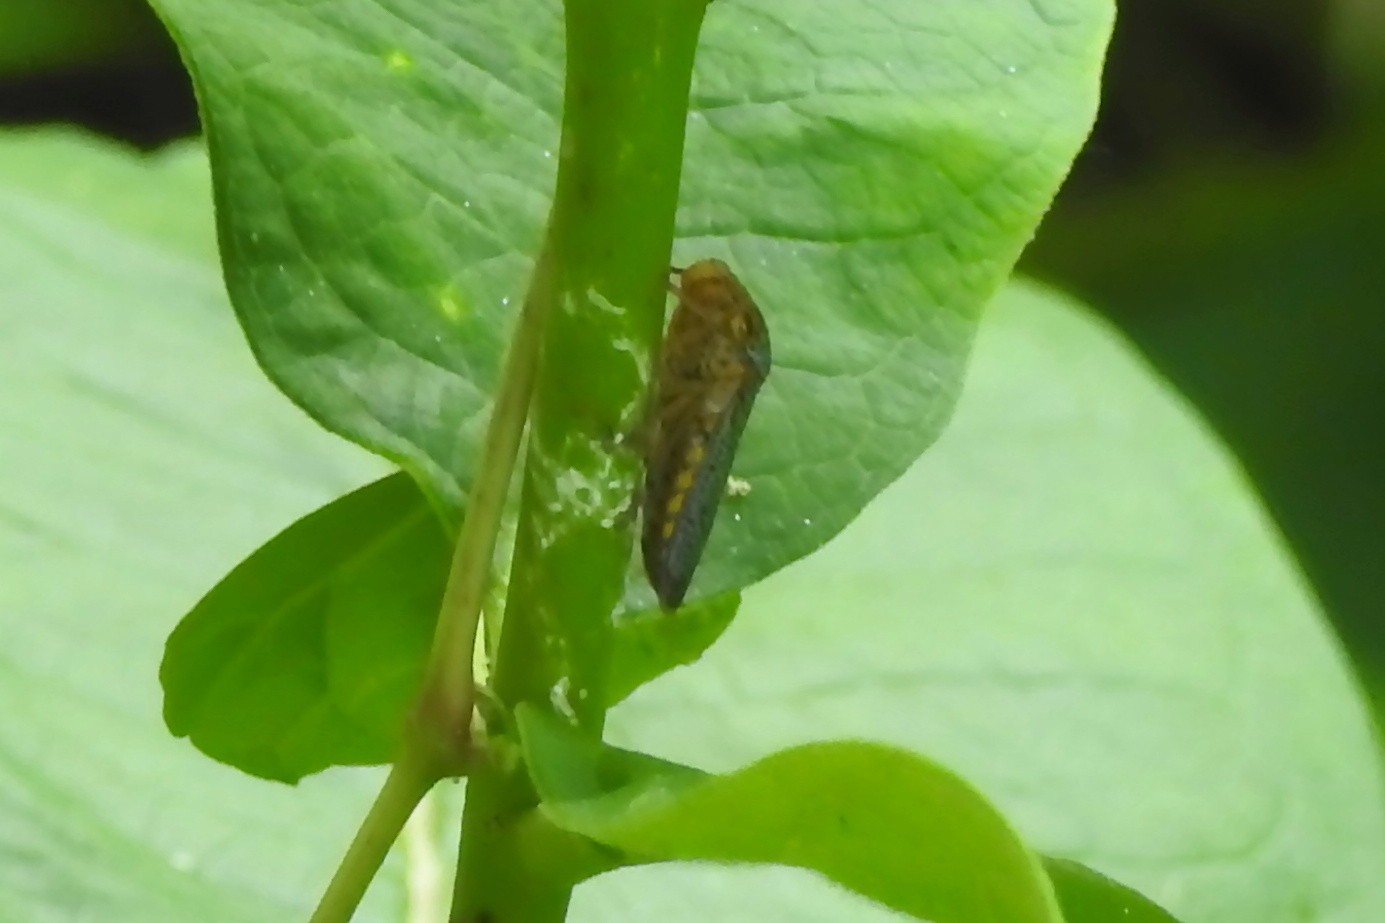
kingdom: Animalia
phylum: Arthropoda
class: Insecta
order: Hemiptera
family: Cicadellidae
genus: Oncometopia
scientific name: Oncometopia orbona
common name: Broad-headed sharpshooter
